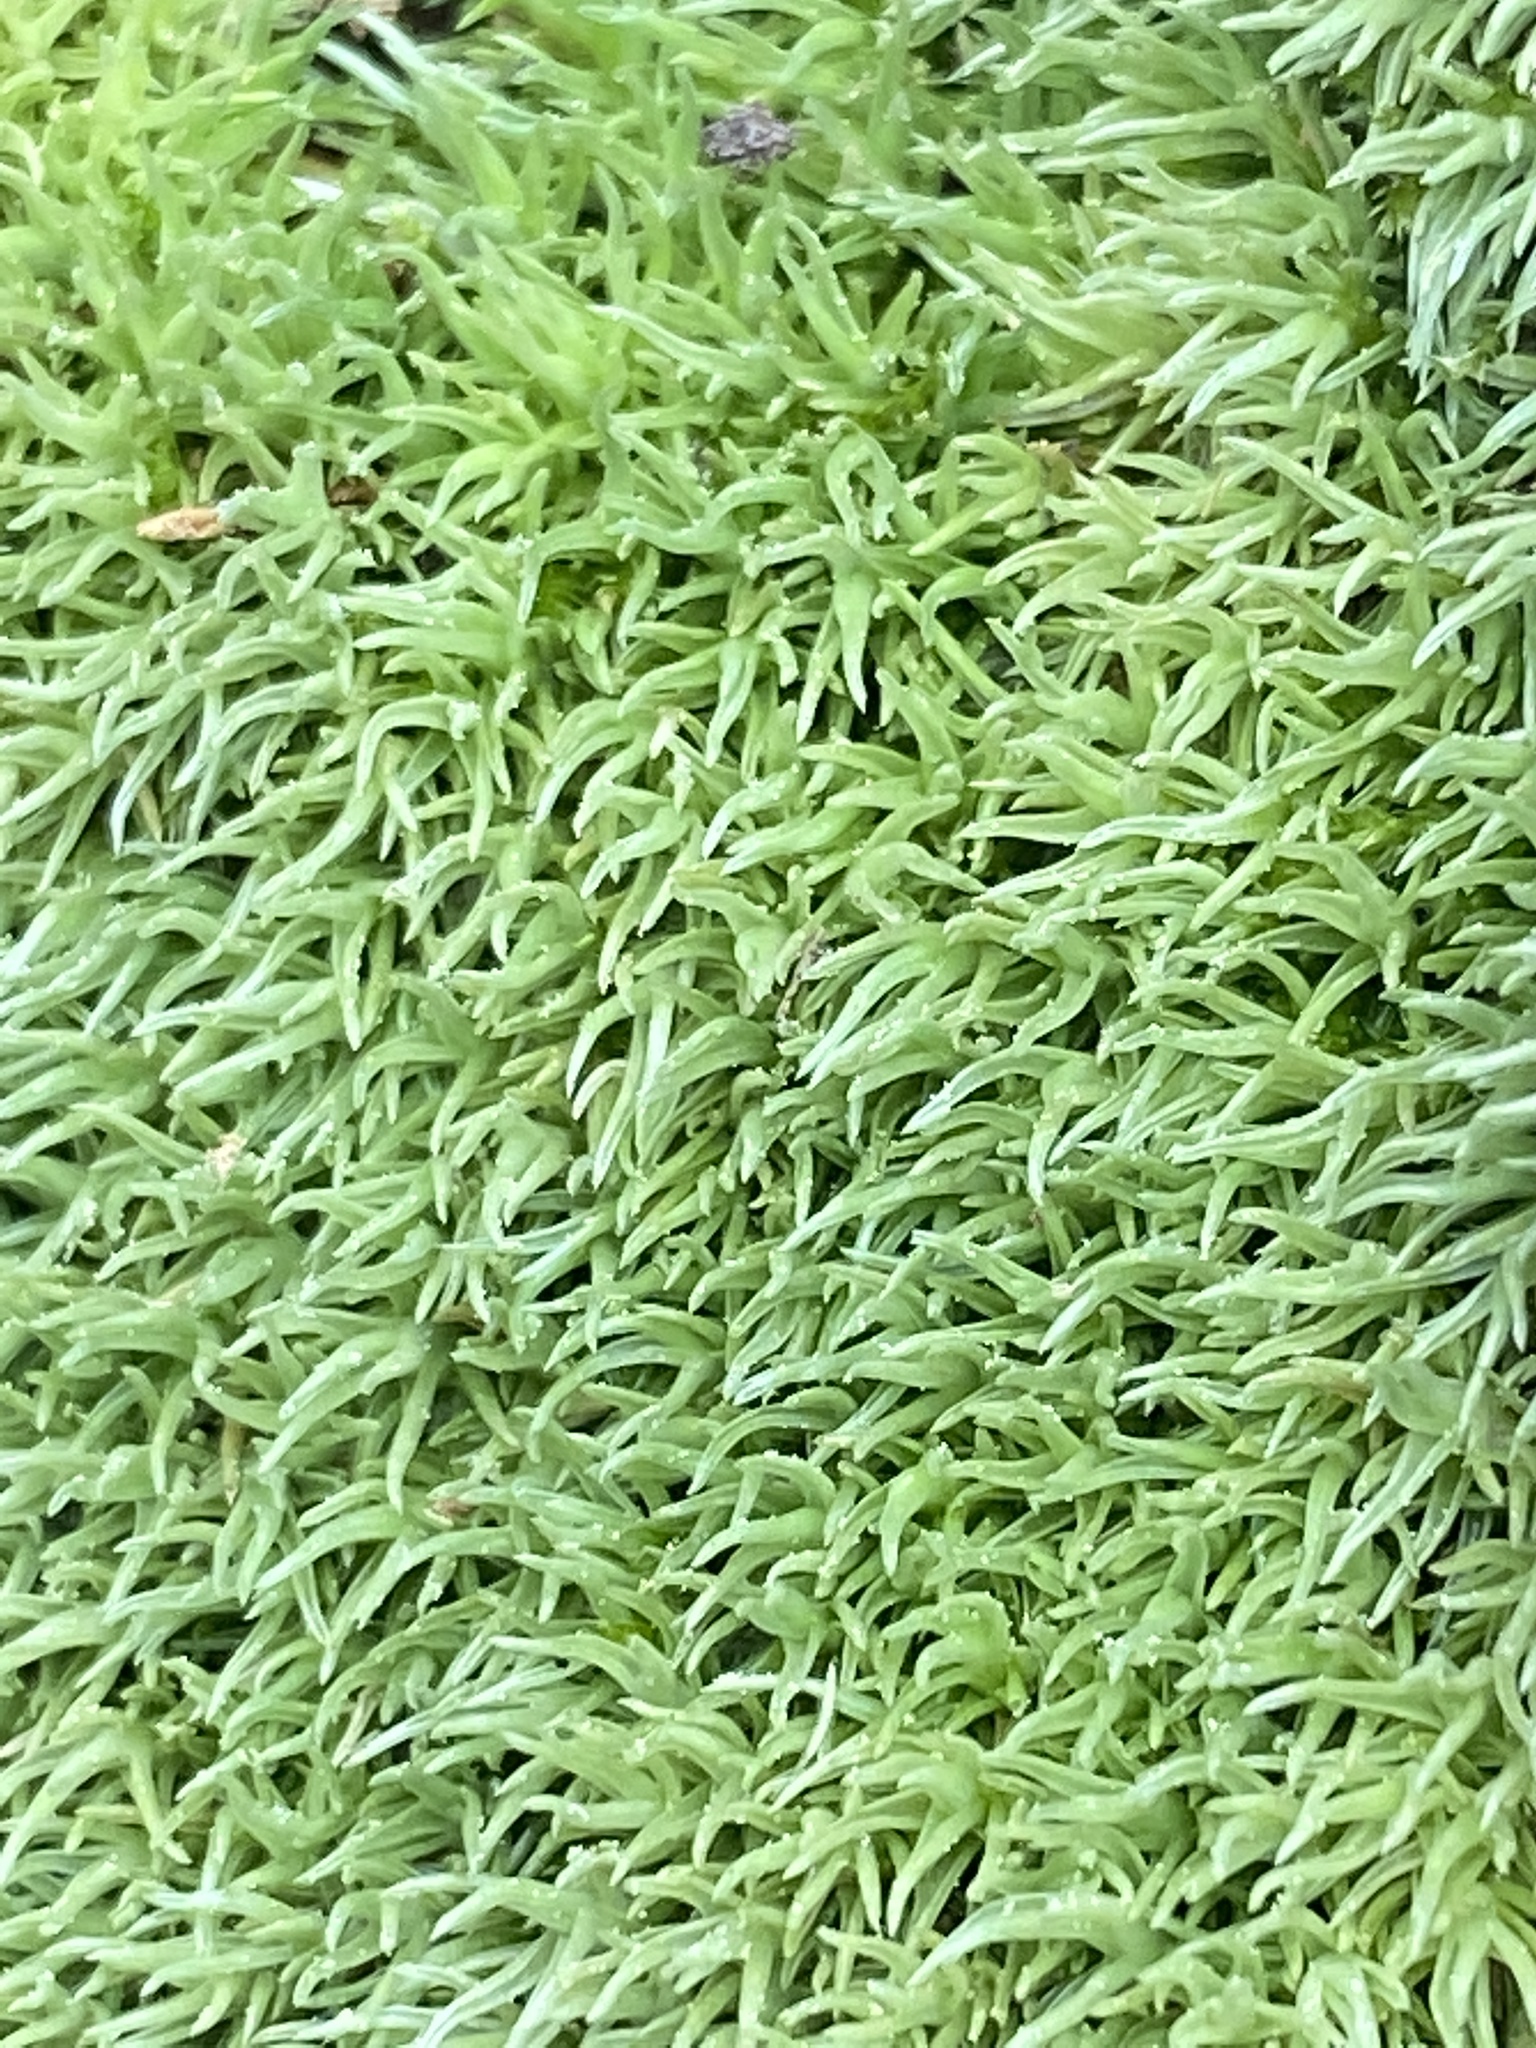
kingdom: Plantae
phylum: Bryophyta
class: Bryopsida
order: Dicranales
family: Leucobryaceae
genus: Leucobryum
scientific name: Leucobryum glaucum
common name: Large white-moss
